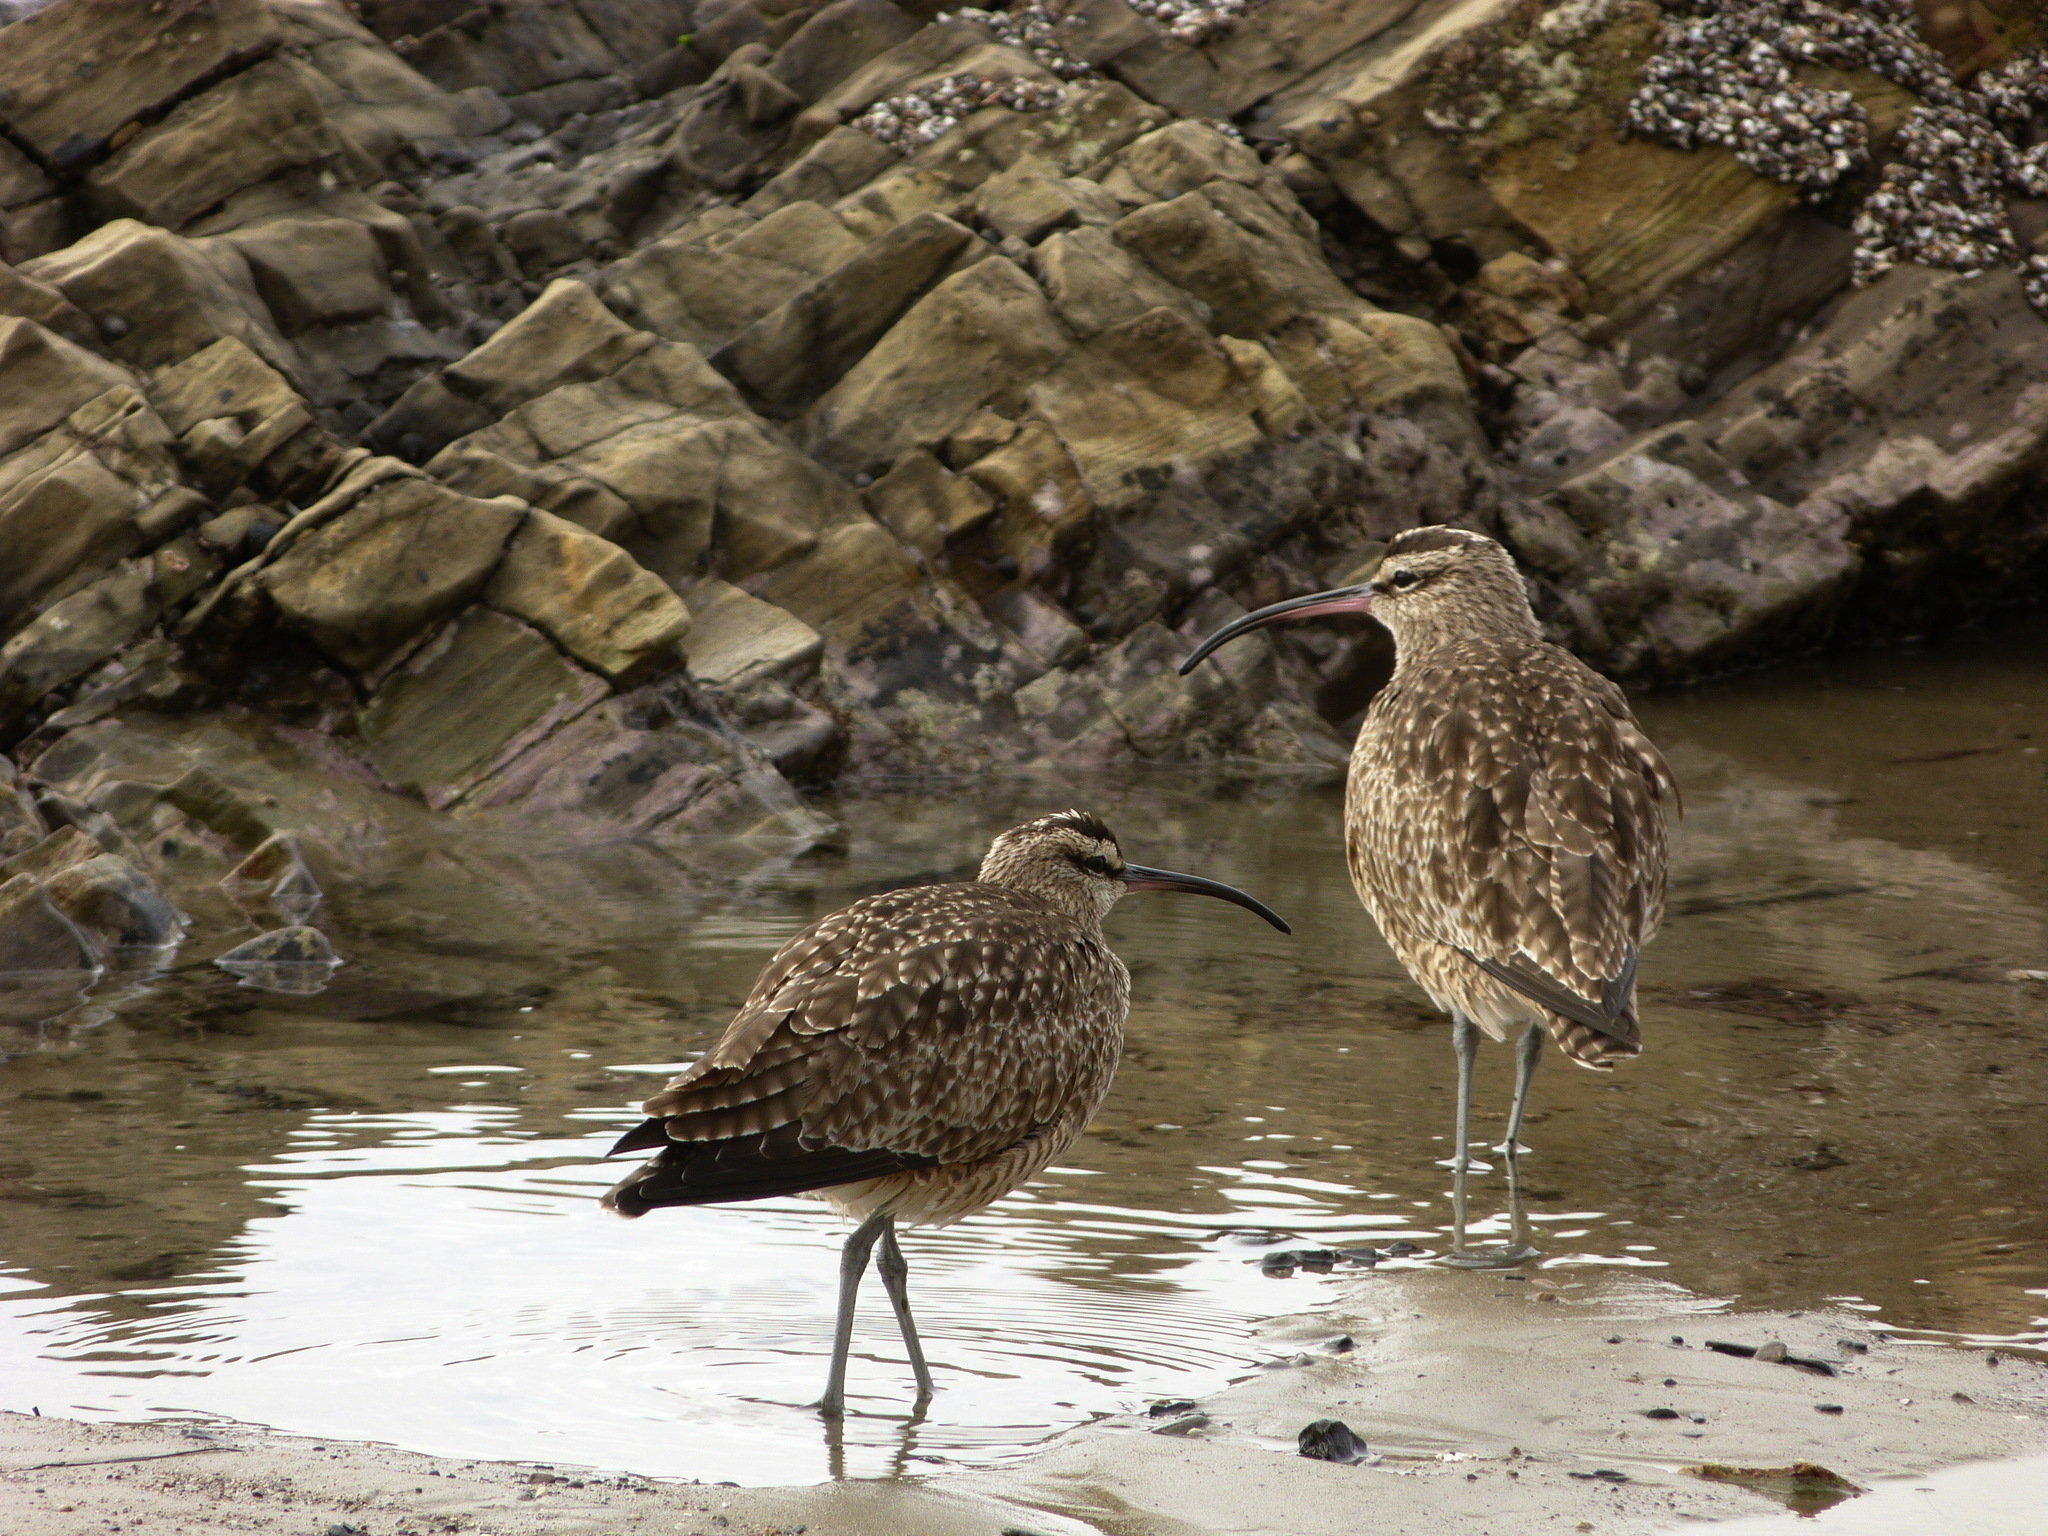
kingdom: Animalia
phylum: Chordata
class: Aves
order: Charadriiformes
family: Scolopacidae
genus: Numenius
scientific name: Numenius phaeopus
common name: Whimbrel
